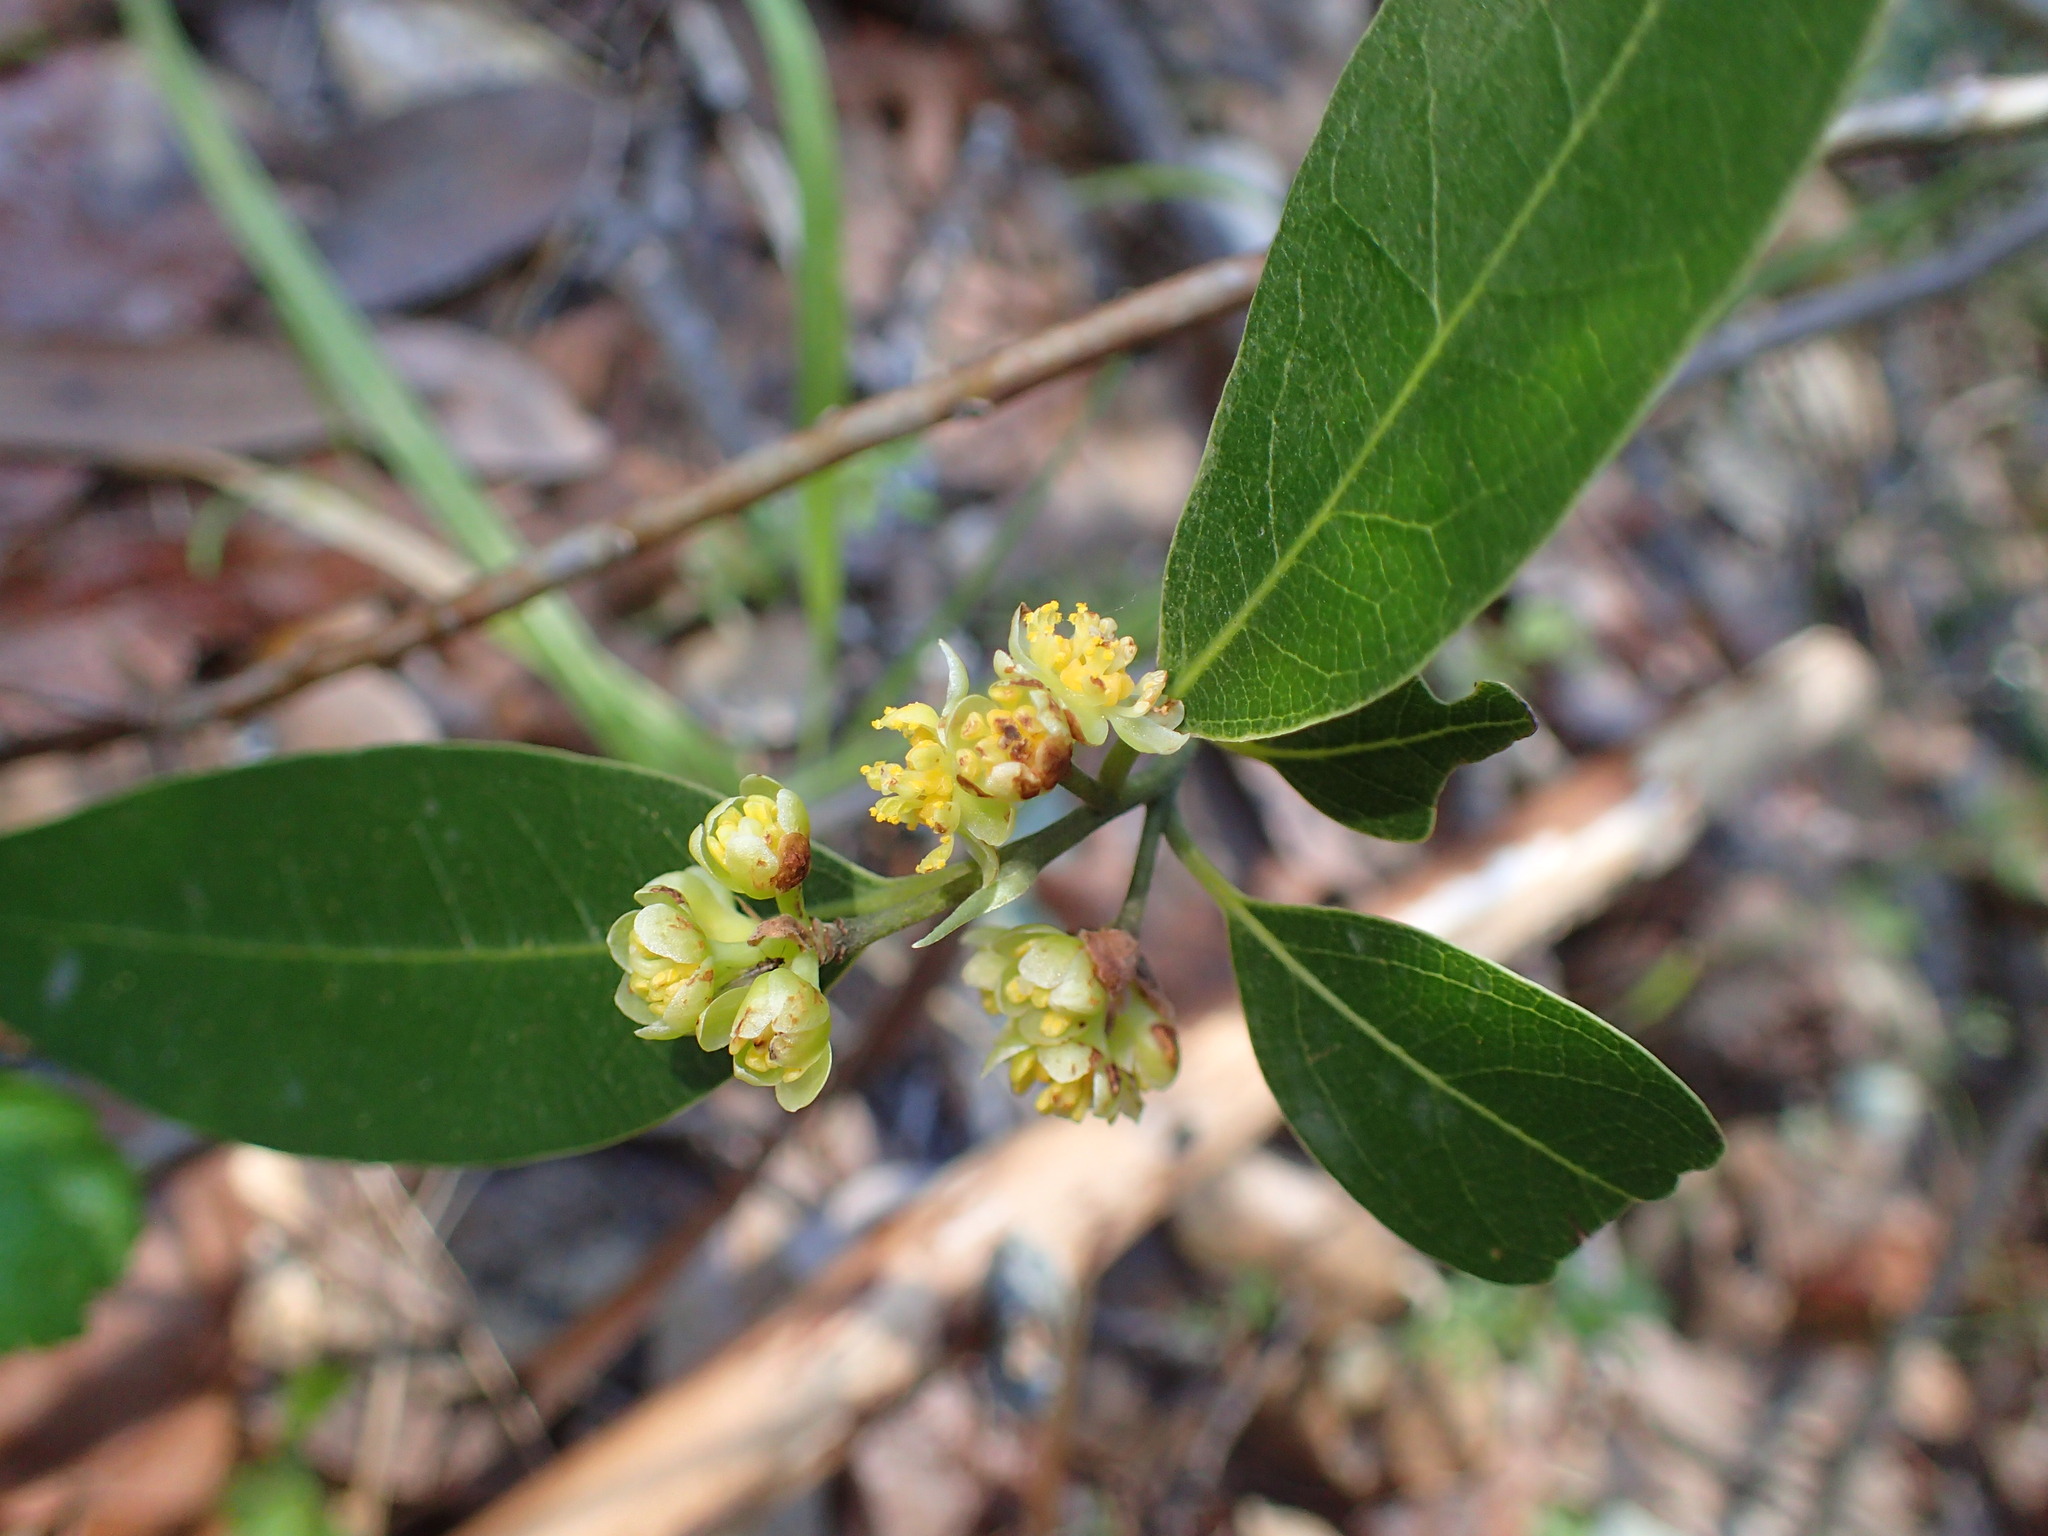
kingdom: Plantae
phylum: Tracheophyta
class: Magnoliopsida
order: Laurales
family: Lauraceae
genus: Umbellularia
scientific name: Umbellularia californica
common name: California bay
